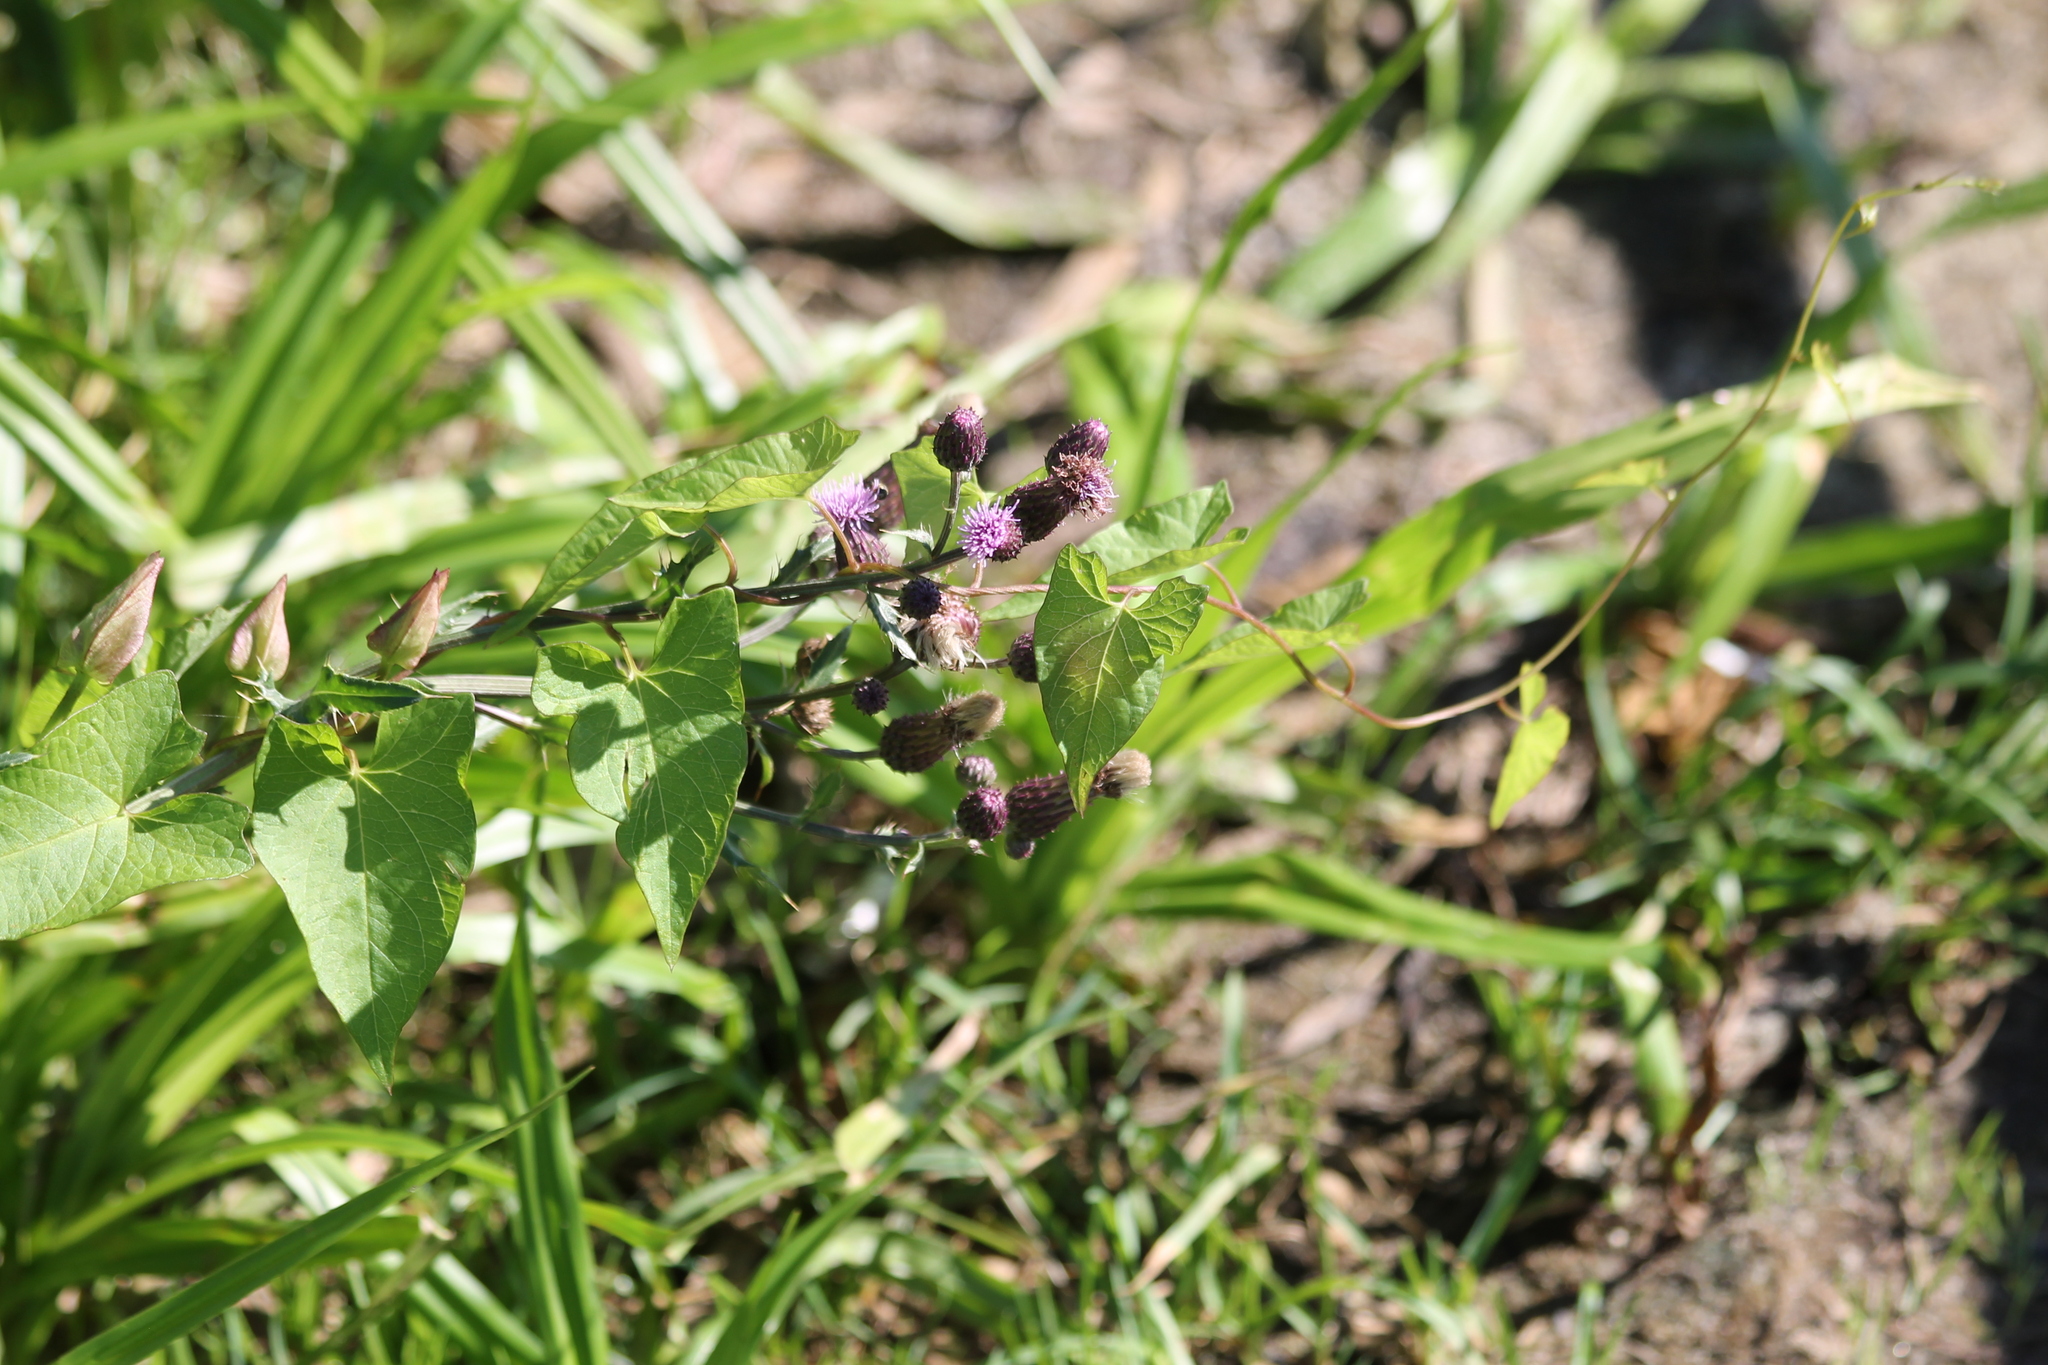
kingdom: Plantae
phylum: Tracheophyta
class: Magnoliopsida
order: Asterales
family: Asteraceae
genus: Cirsium
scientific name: Cirsium arvense
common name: Creeping thistle
